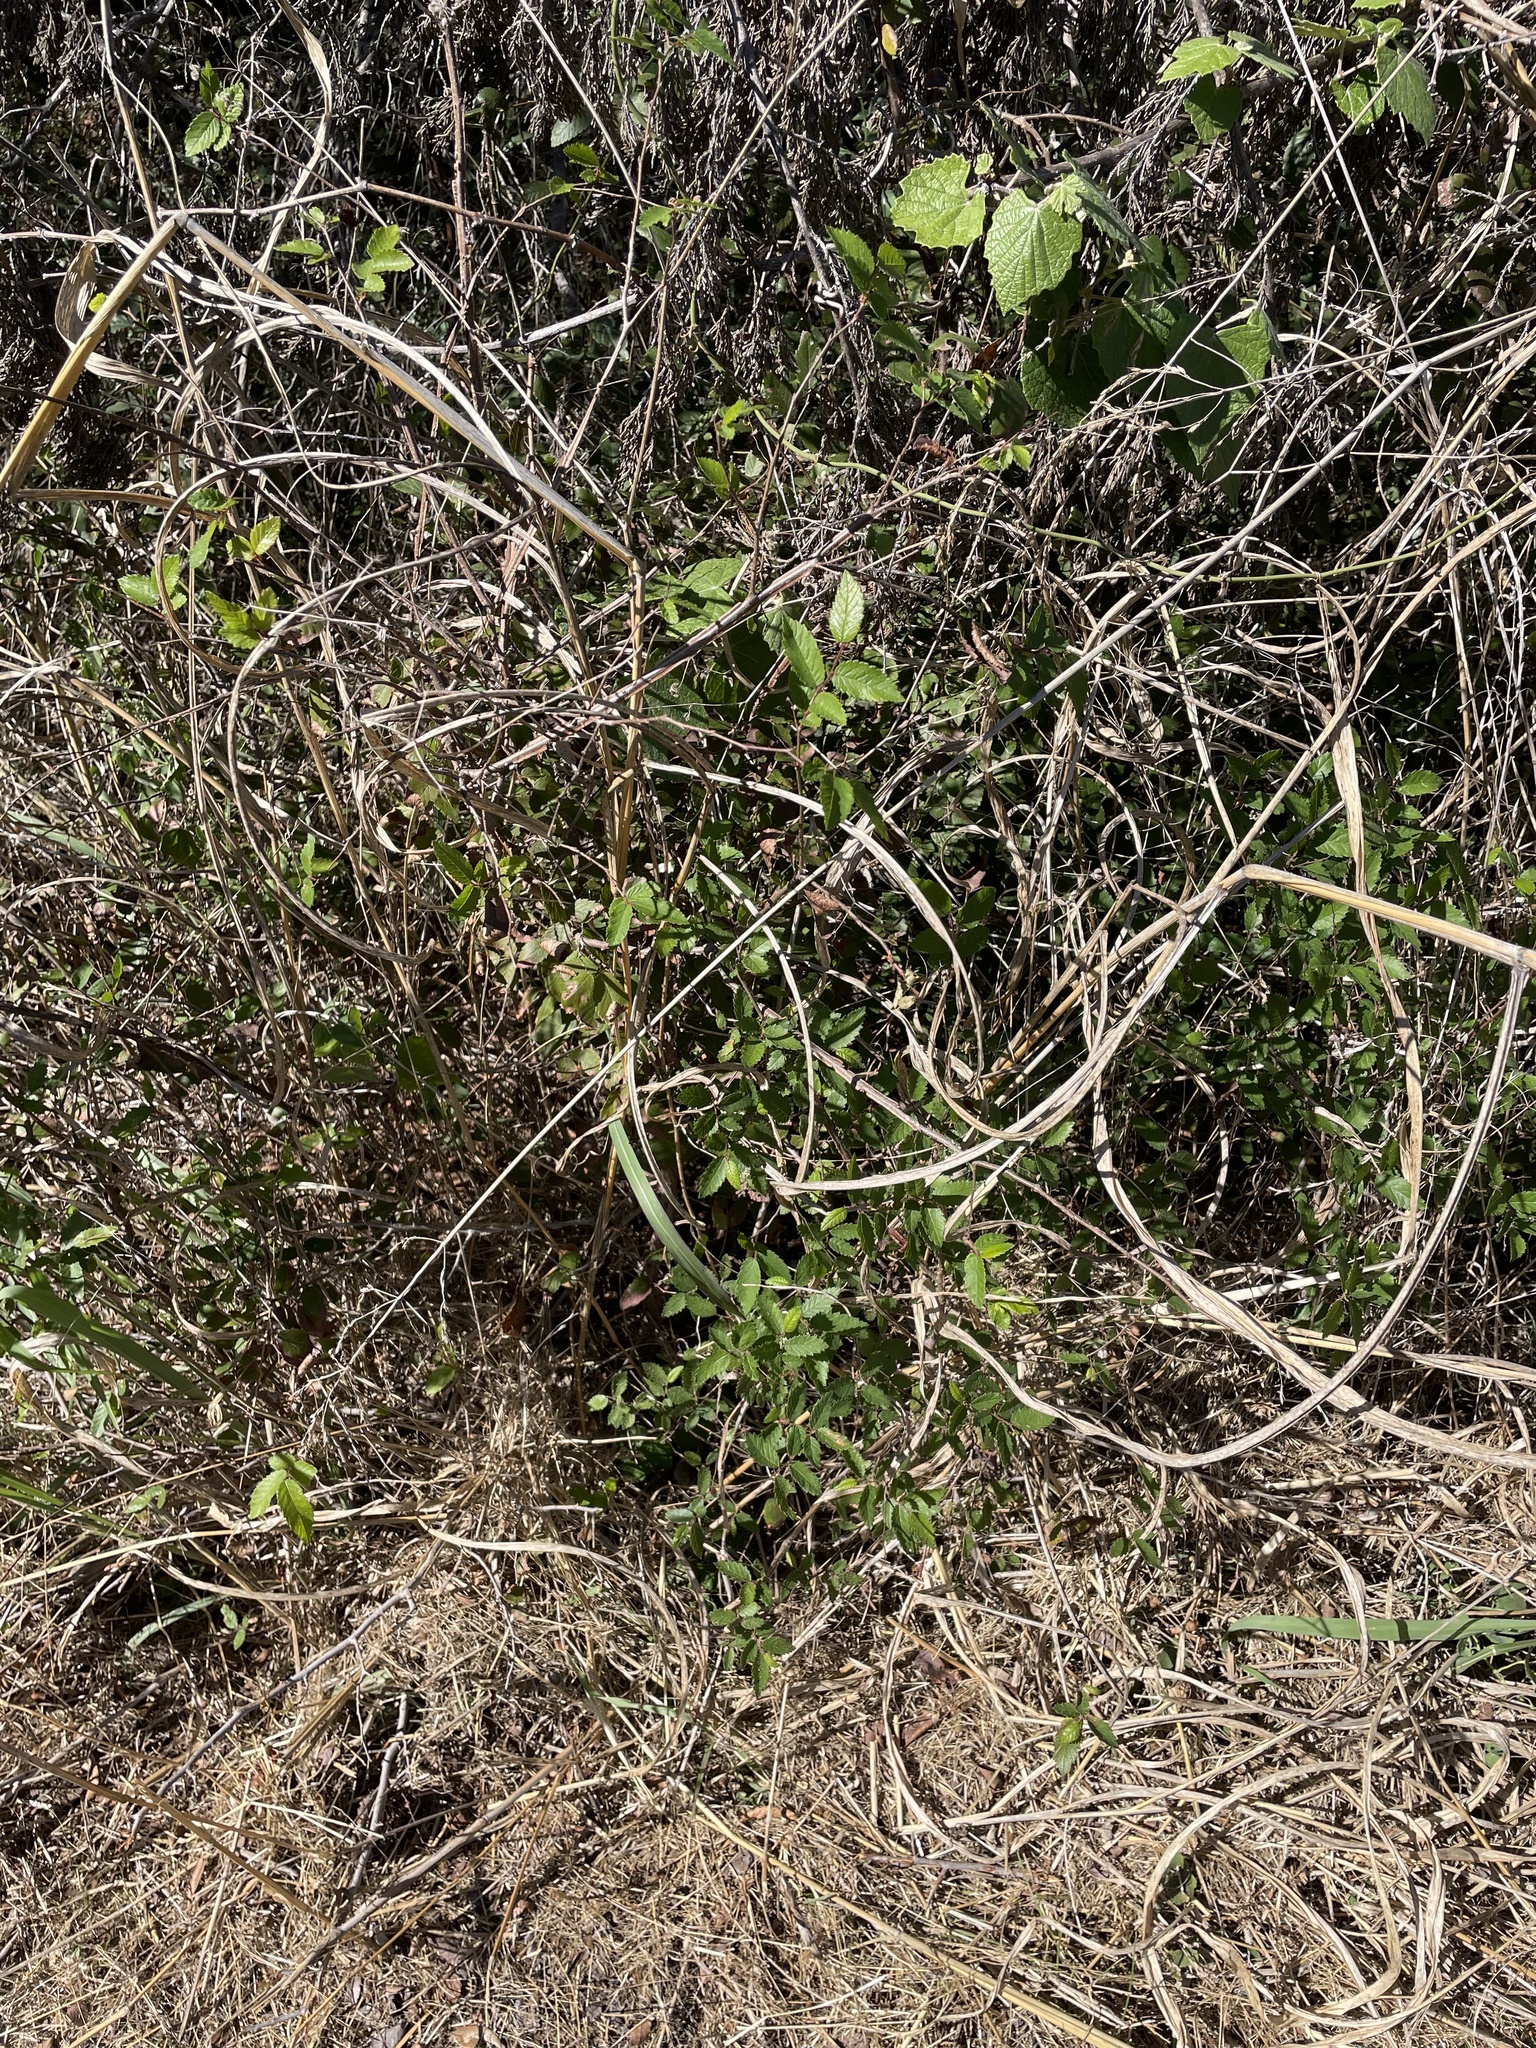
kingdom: Plantae
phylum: Tracheophyta
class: Magnoliopsida
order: Rosales
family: Ulmaceae
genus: Ulmus
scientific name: Ulmus crassifolia
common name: Basket elm
